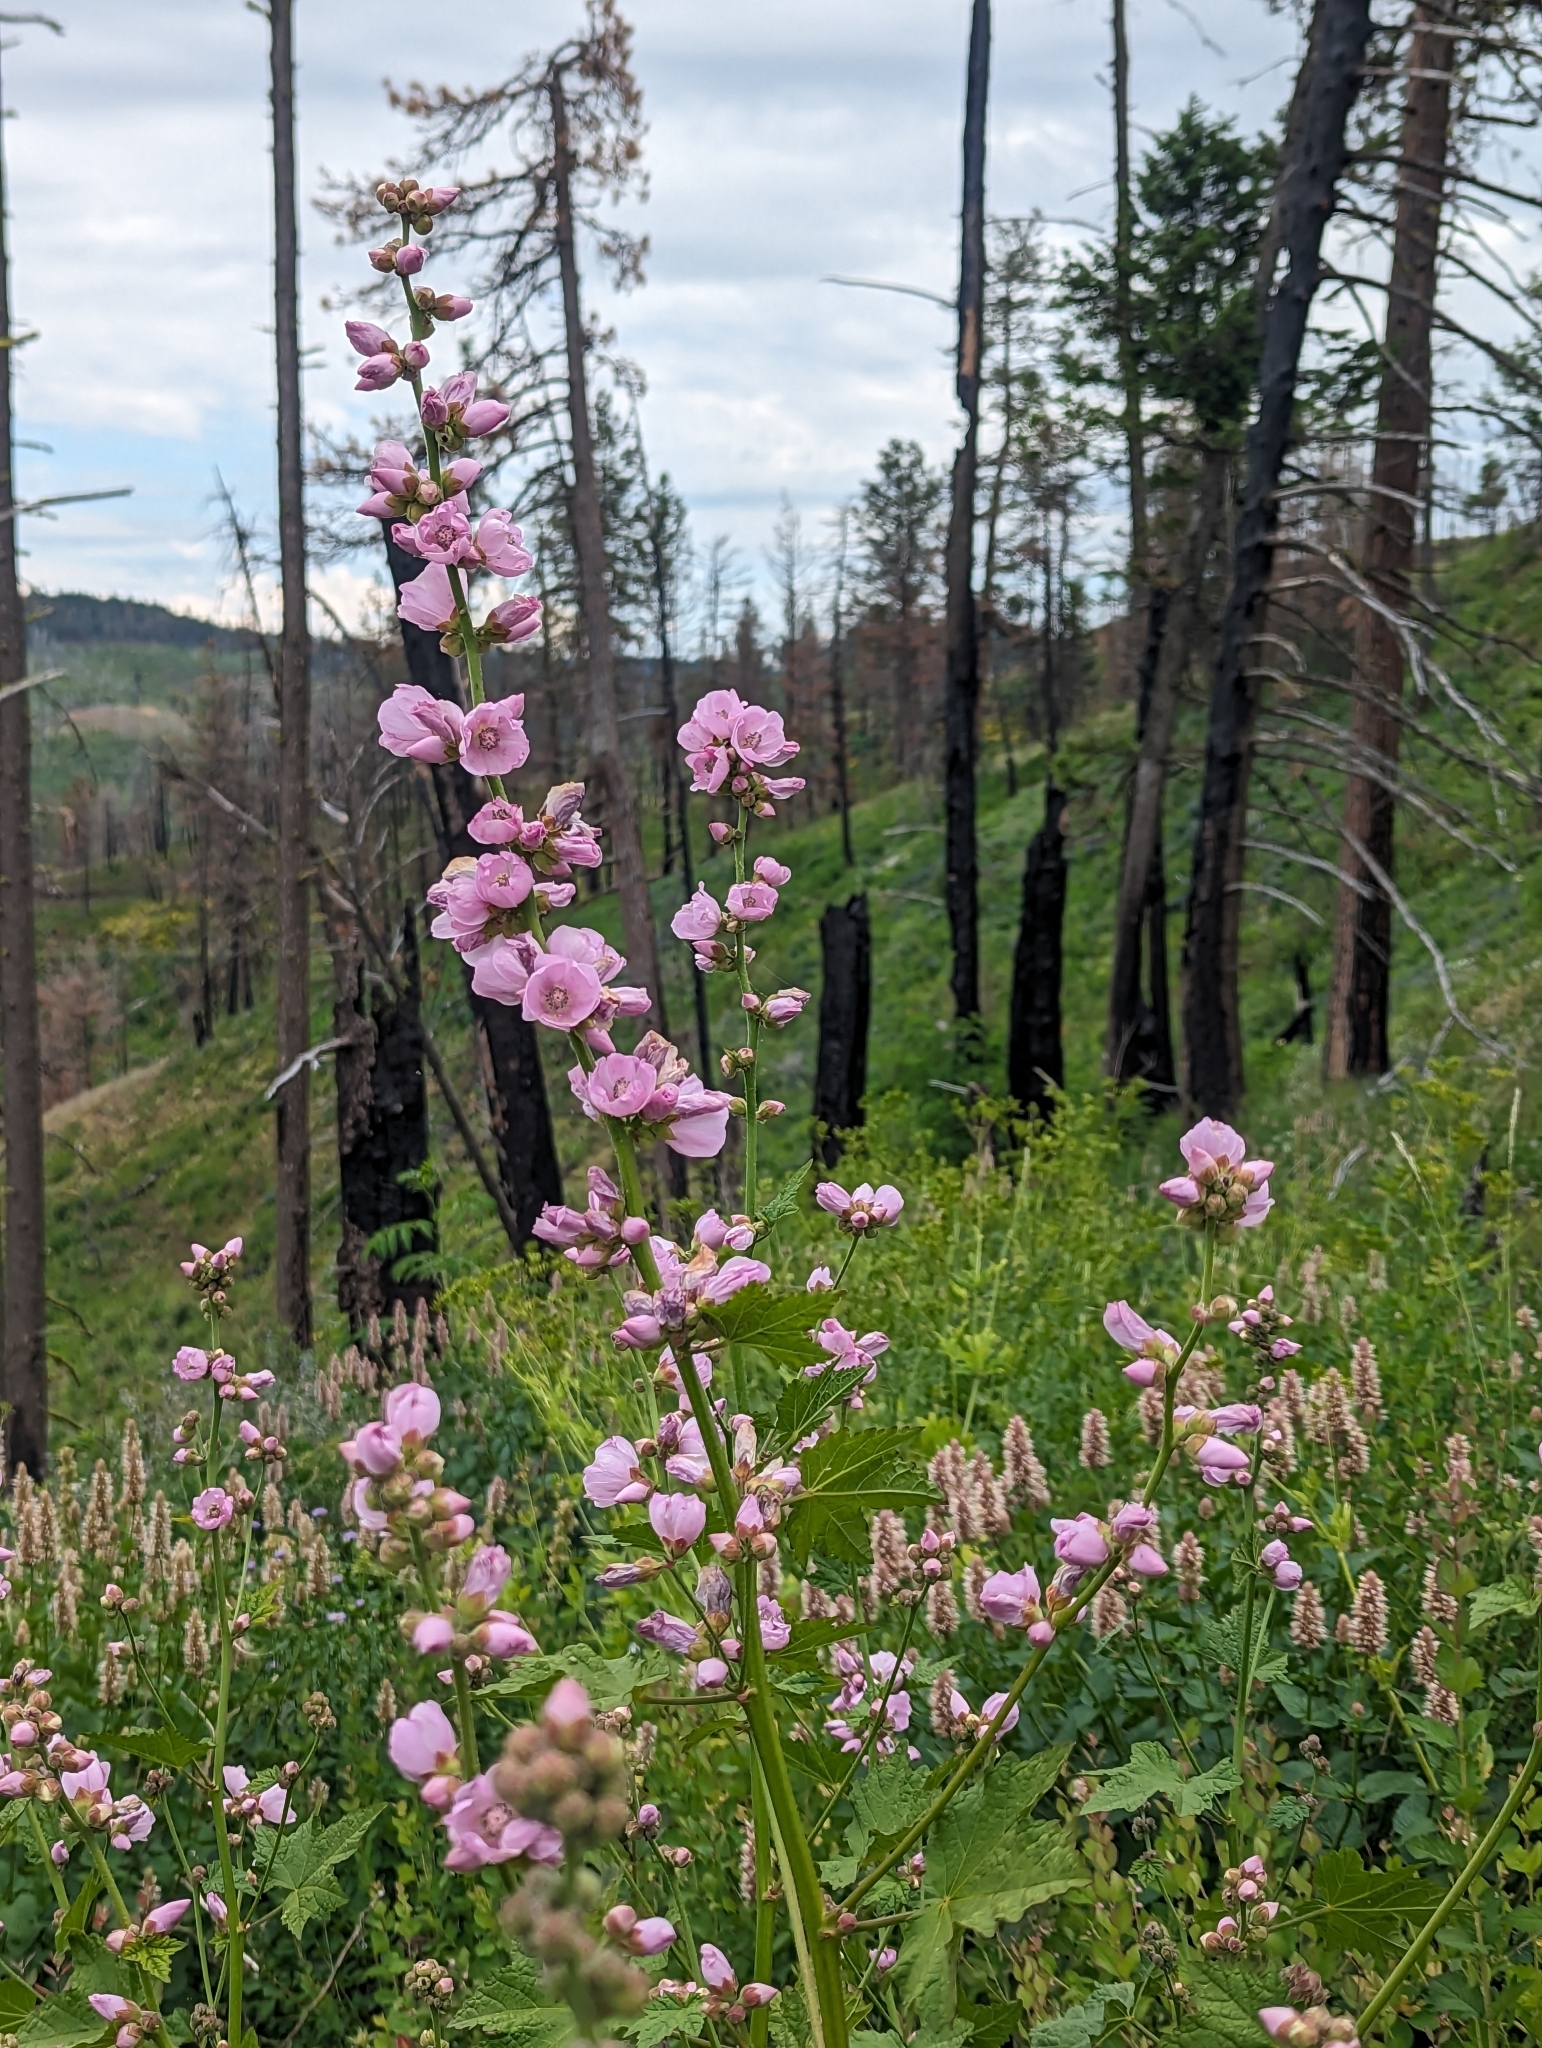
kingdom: Plantae
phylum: Tracheophyta
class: Magnoliopsida
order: Malvales
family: Malvaceae
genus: Iliamna
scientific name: Iliamna rivularis
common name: Wild hollyhock
